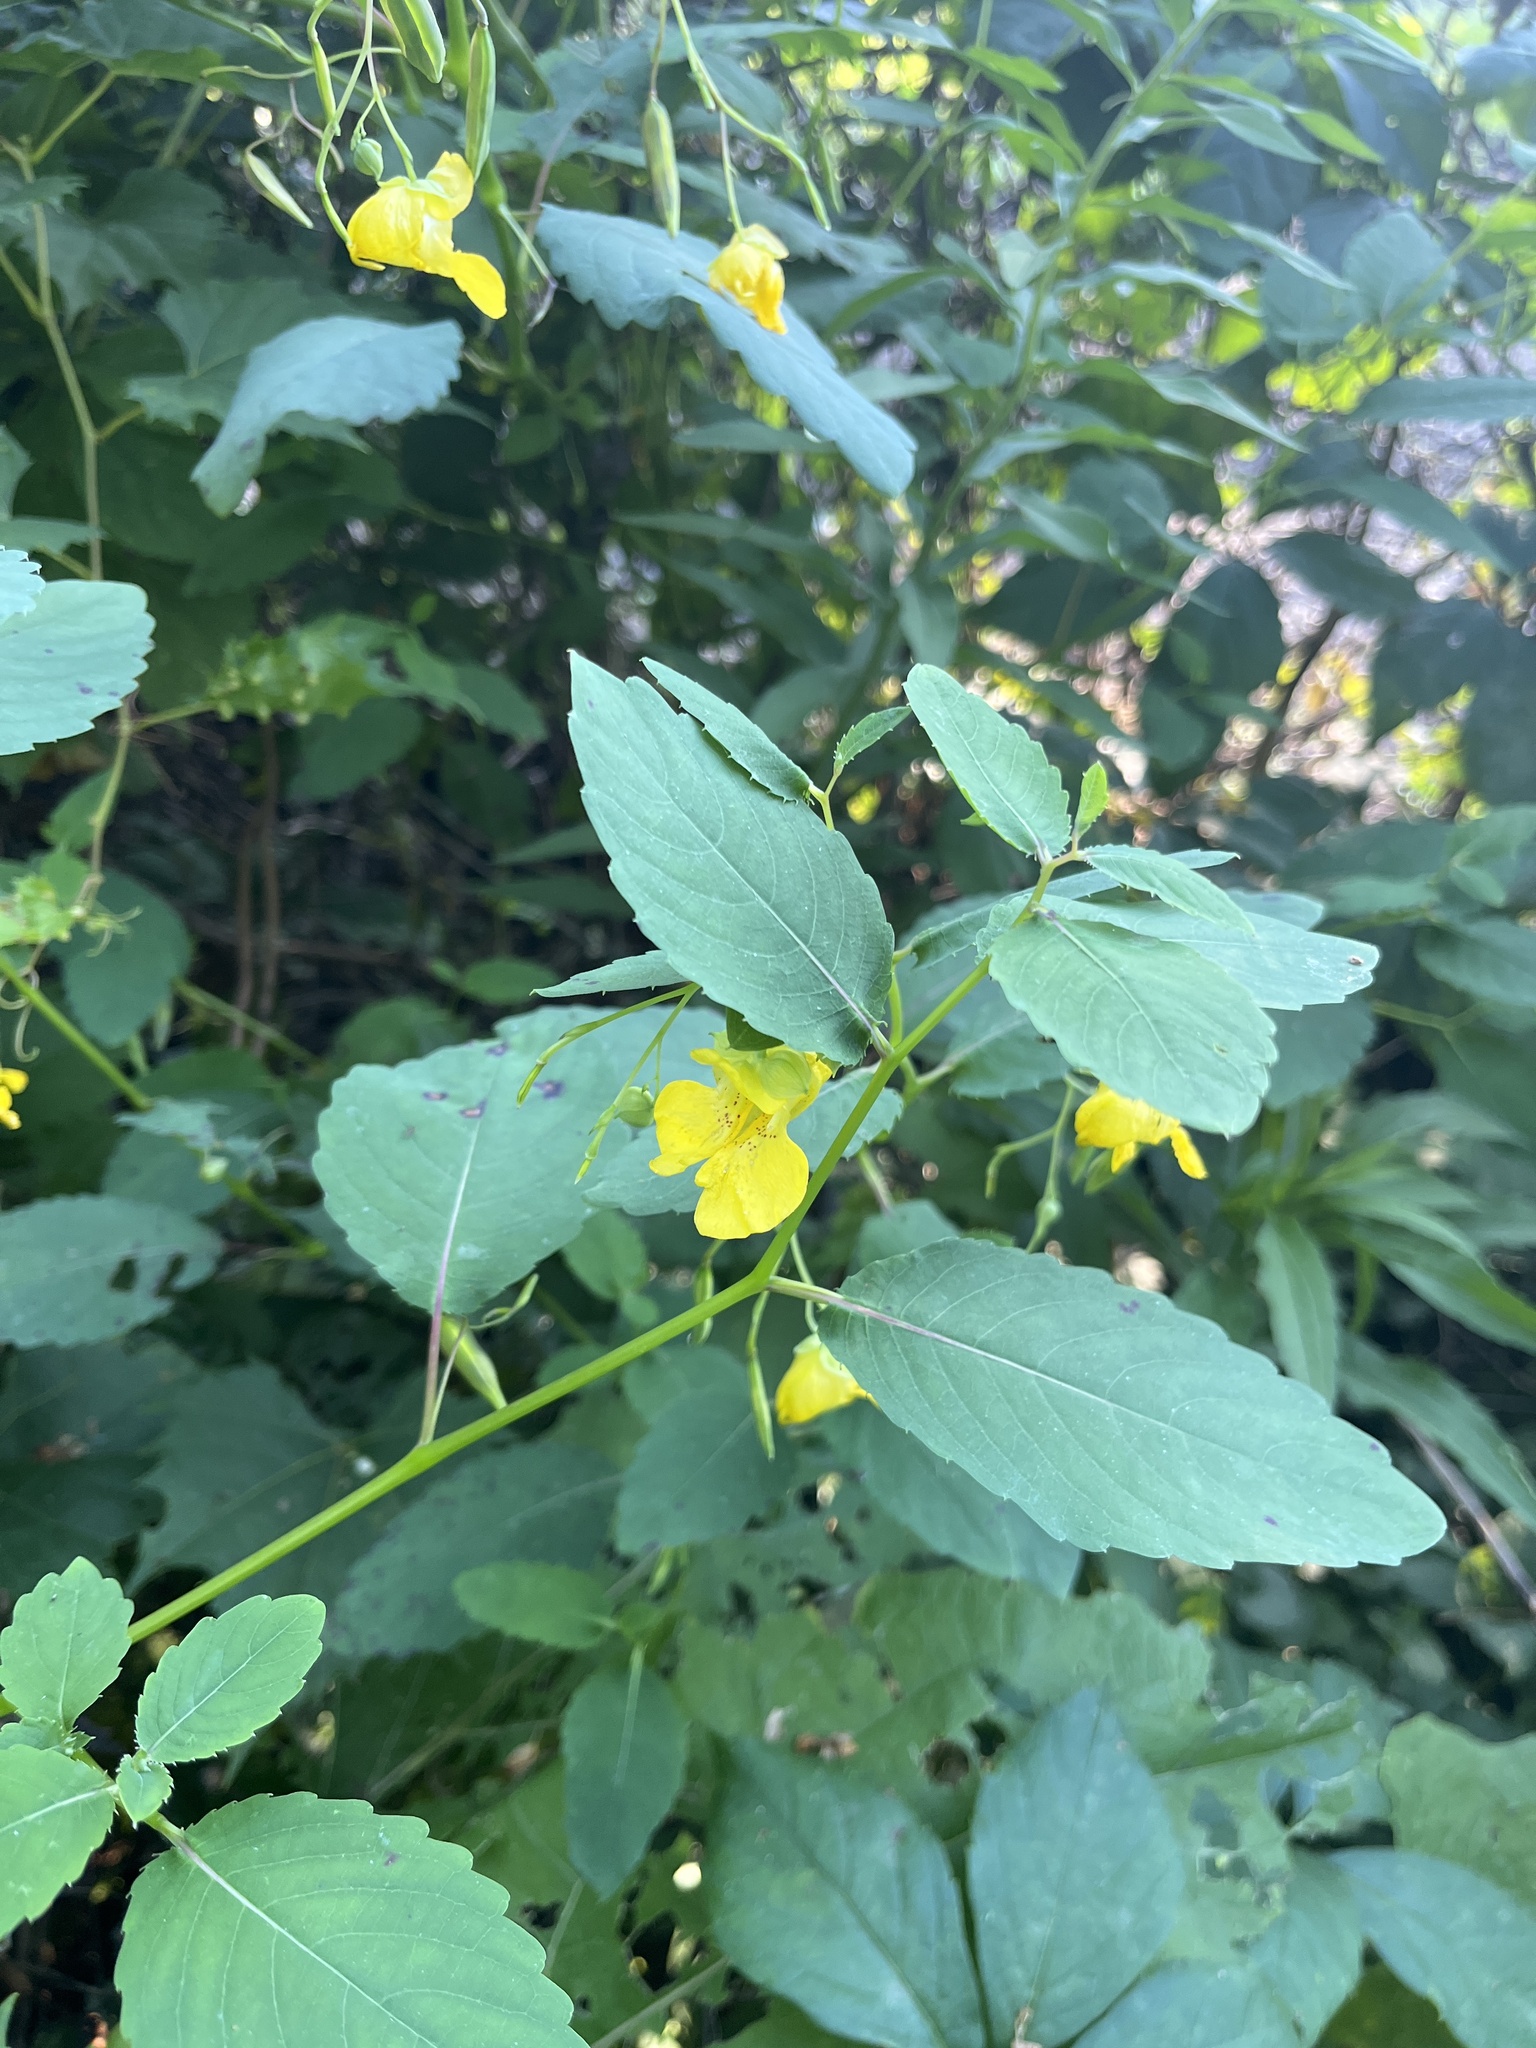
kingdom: Plantae
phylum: Tracheophyta
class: Magnoliopsida
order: Ericales
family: Balsaminaceae
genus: Impatiens
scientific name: Impatiens pallida
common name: Pale snapweed
